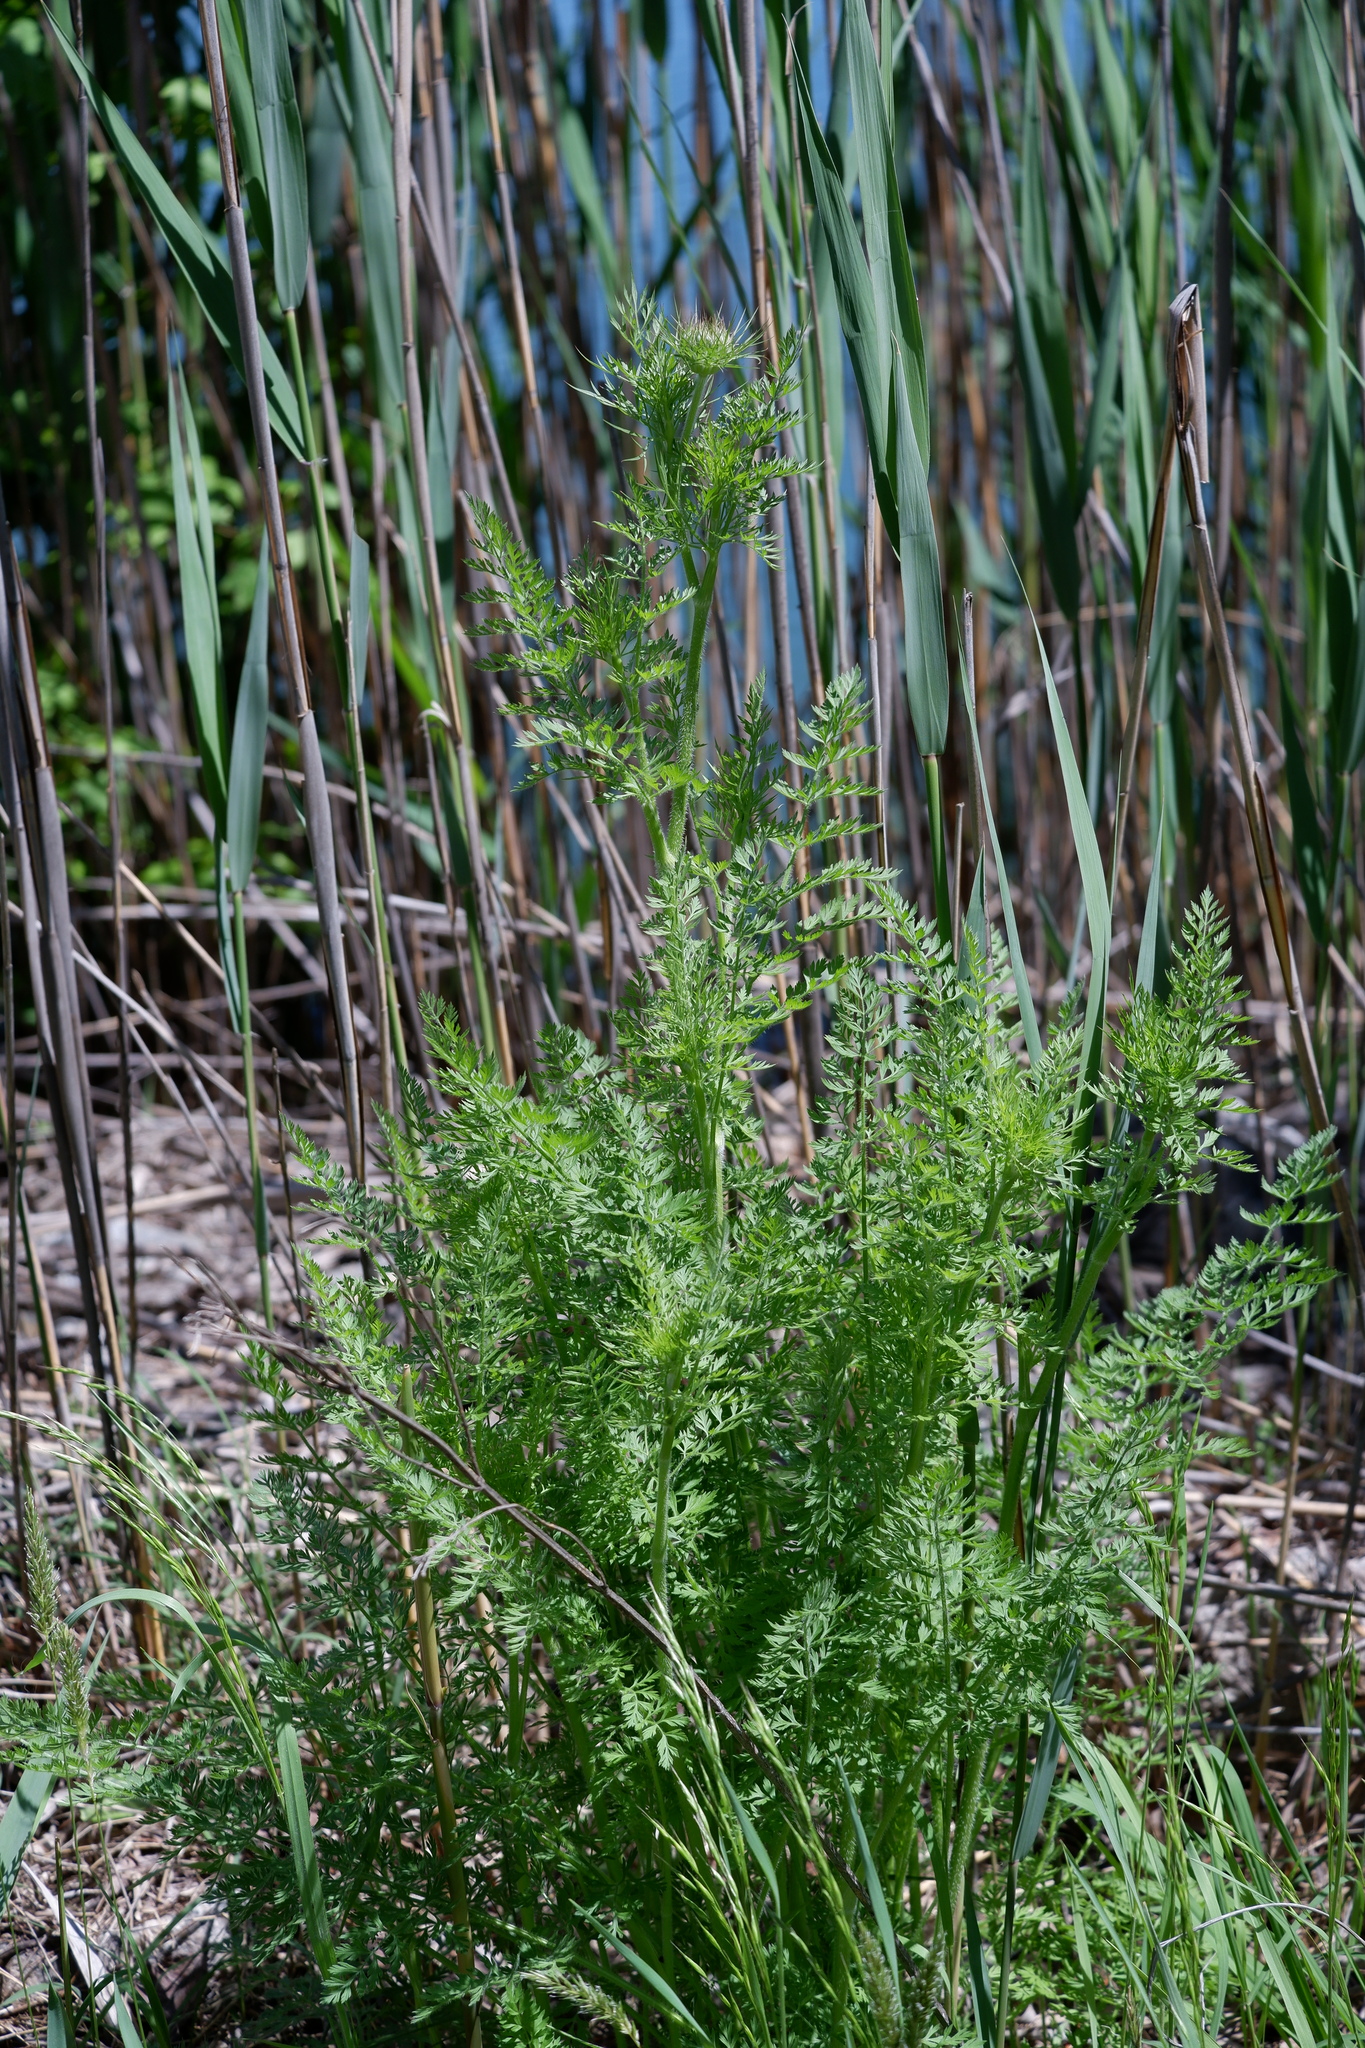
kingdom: Plantae
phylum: Tracheophyta
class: Magnoliopsida
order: Apiales
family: Apiaceae
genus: Daucus
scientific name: Daucus carota
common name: Wild carrot
